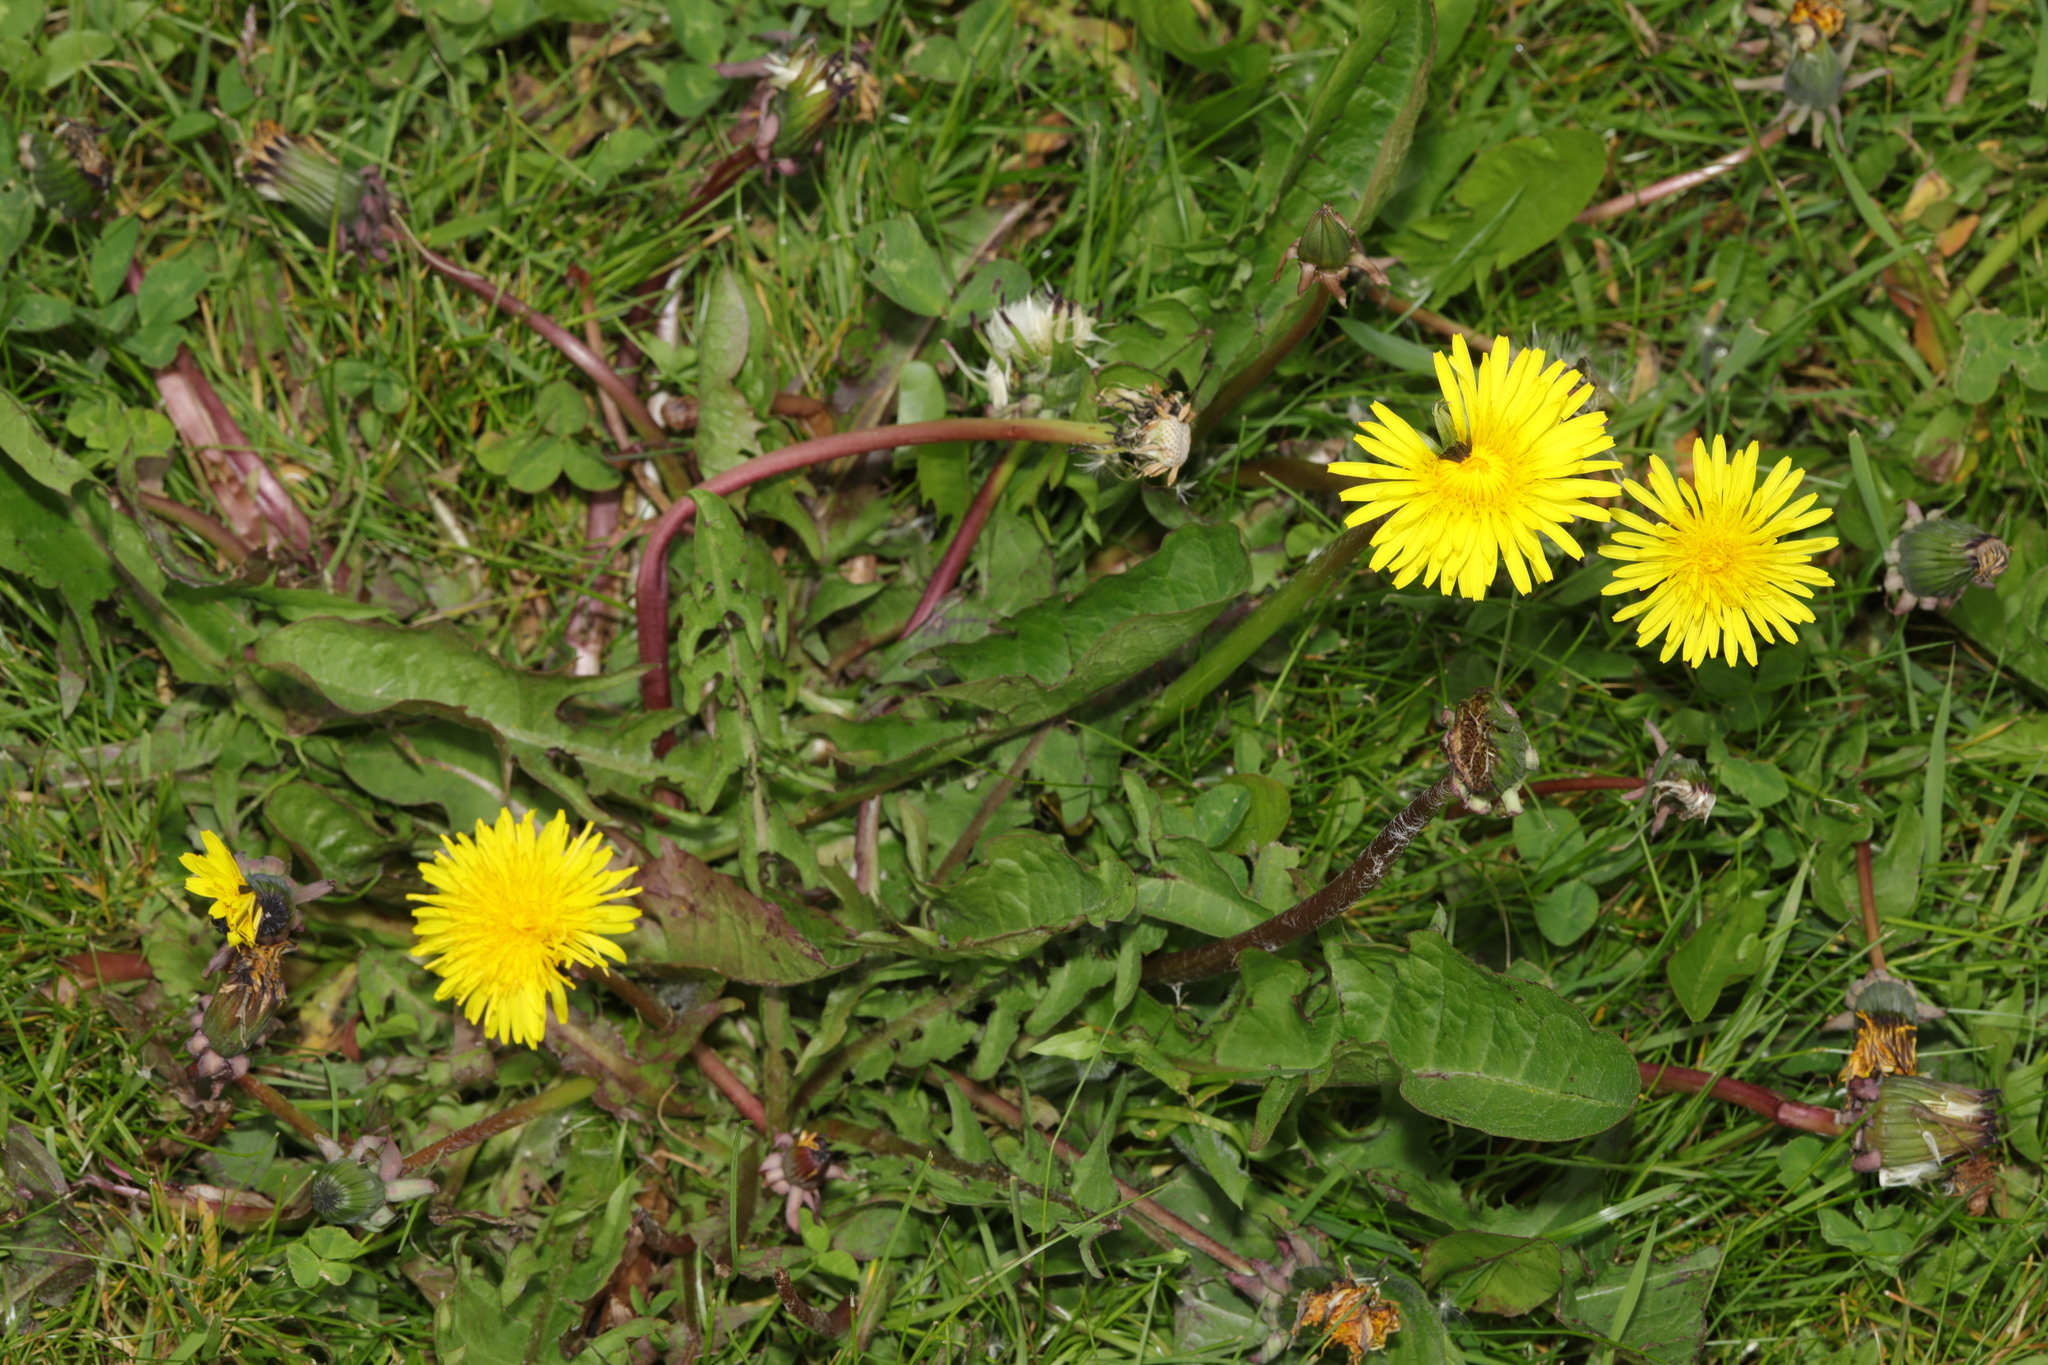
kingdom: Plantae
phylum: Tracheophyta
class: Magnoliopsida
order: Asterales
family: Asteraceae
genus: Taraxacum
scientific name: Taraxacum officinale
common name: Common dandelion
